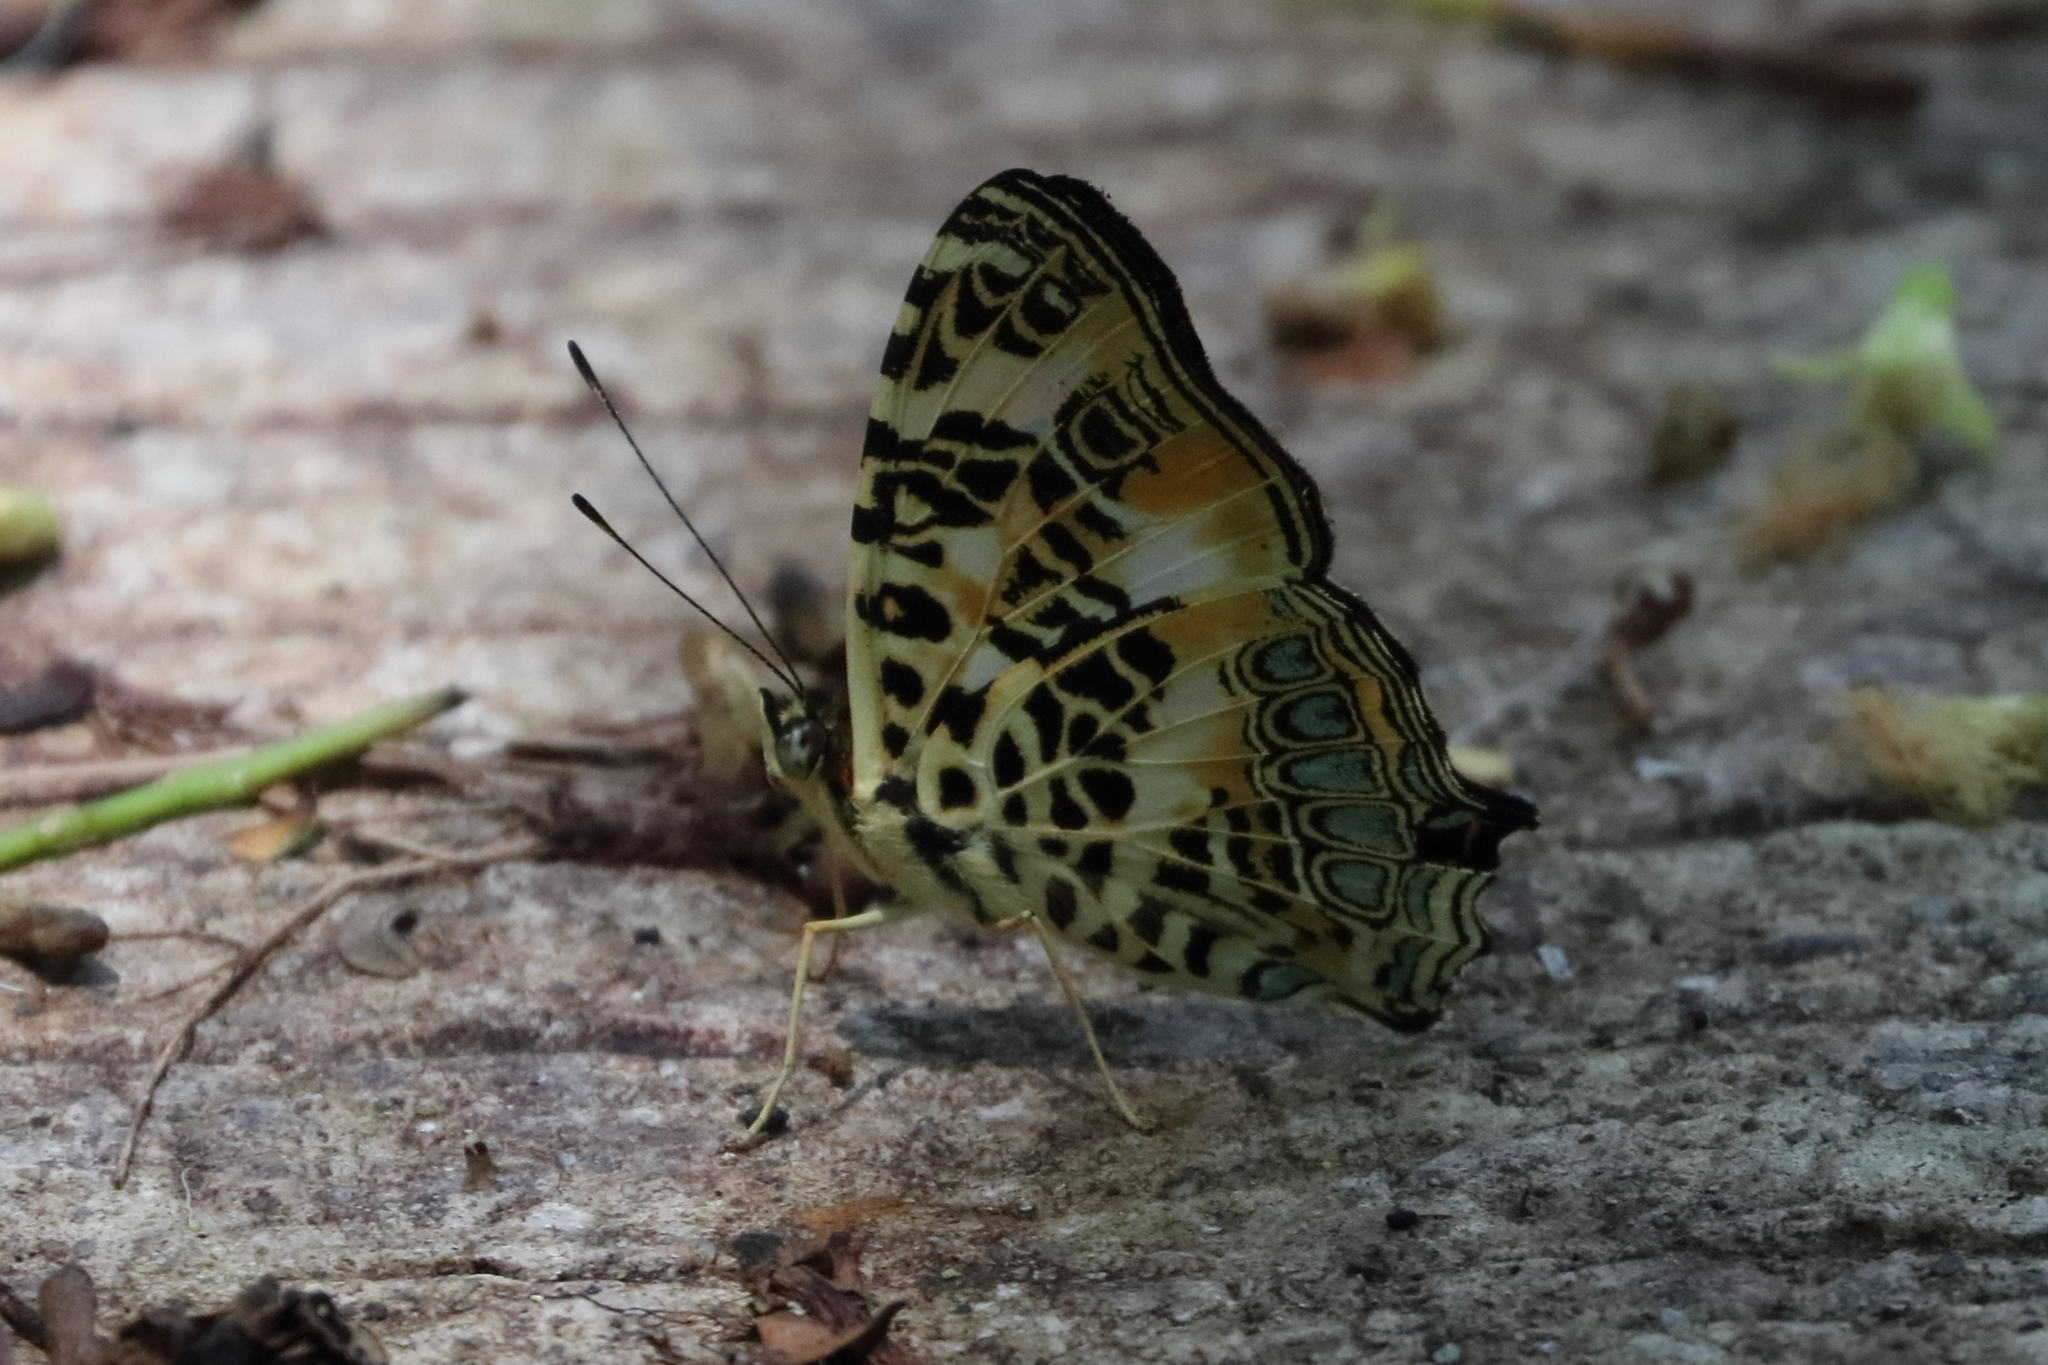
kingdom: Animalia
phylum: Arthropoda
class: Insecta
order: Lepidoptera
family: Nymphalidae
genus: Symbrenthia
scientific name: Symbrenthia hypselis
